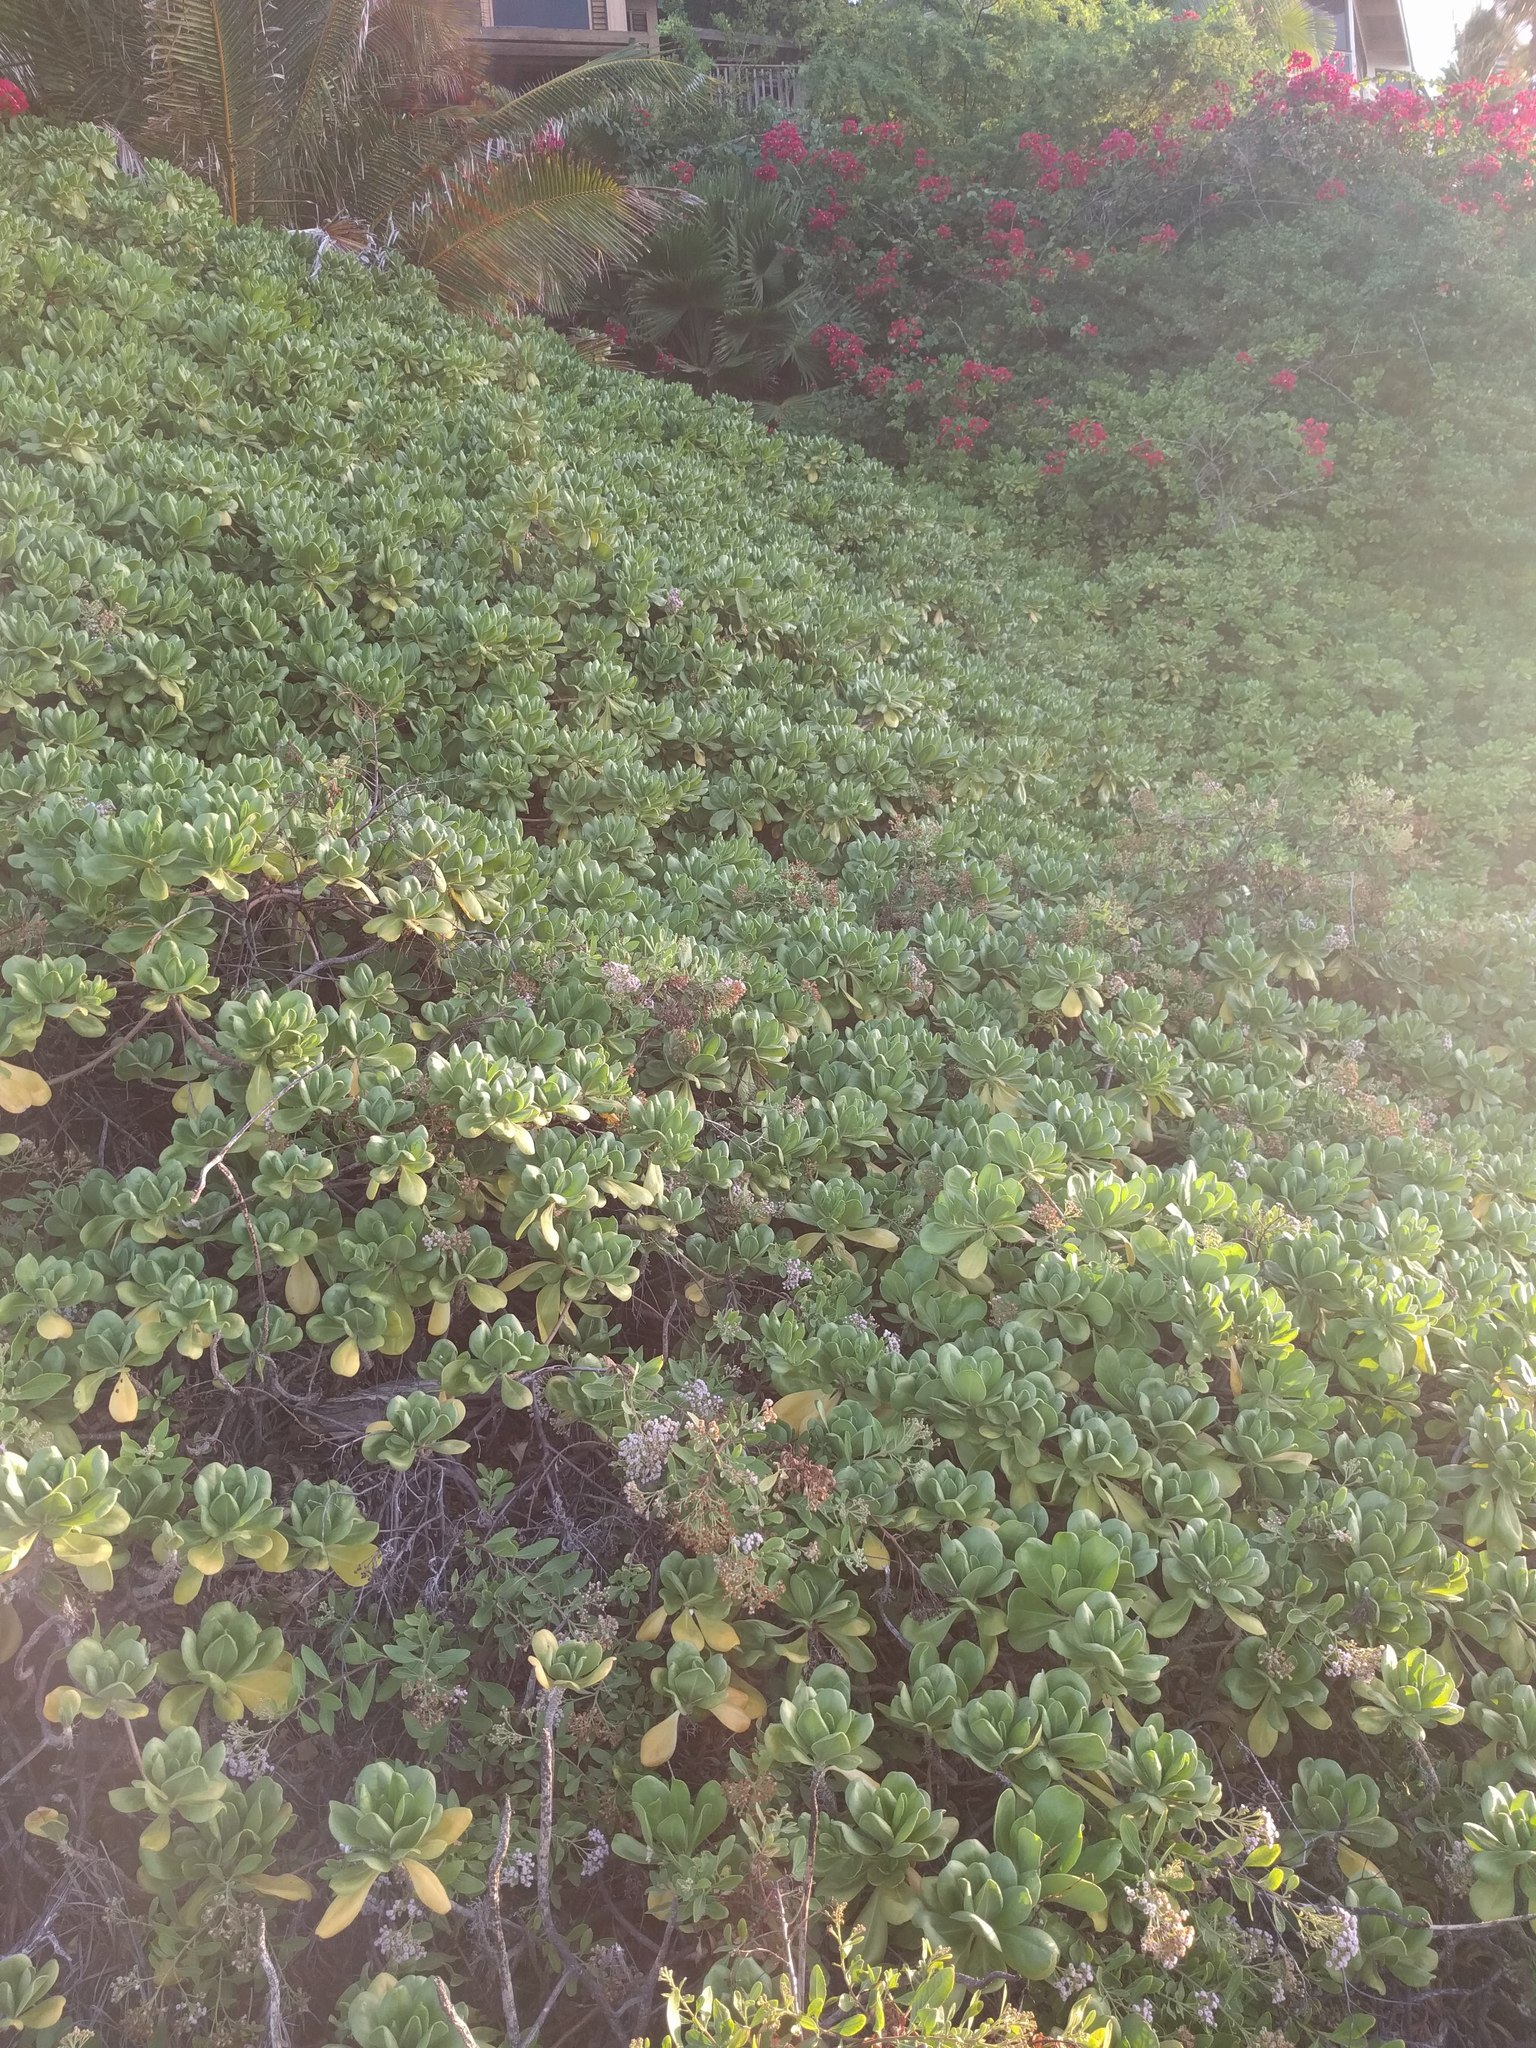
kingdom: Plantae
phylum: Tracheophyta
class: Magnoliopsida
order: Asterales
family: Goodeniaceae
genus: Scaevola
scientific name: Scaevola taccada
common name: Sea lettucetree
